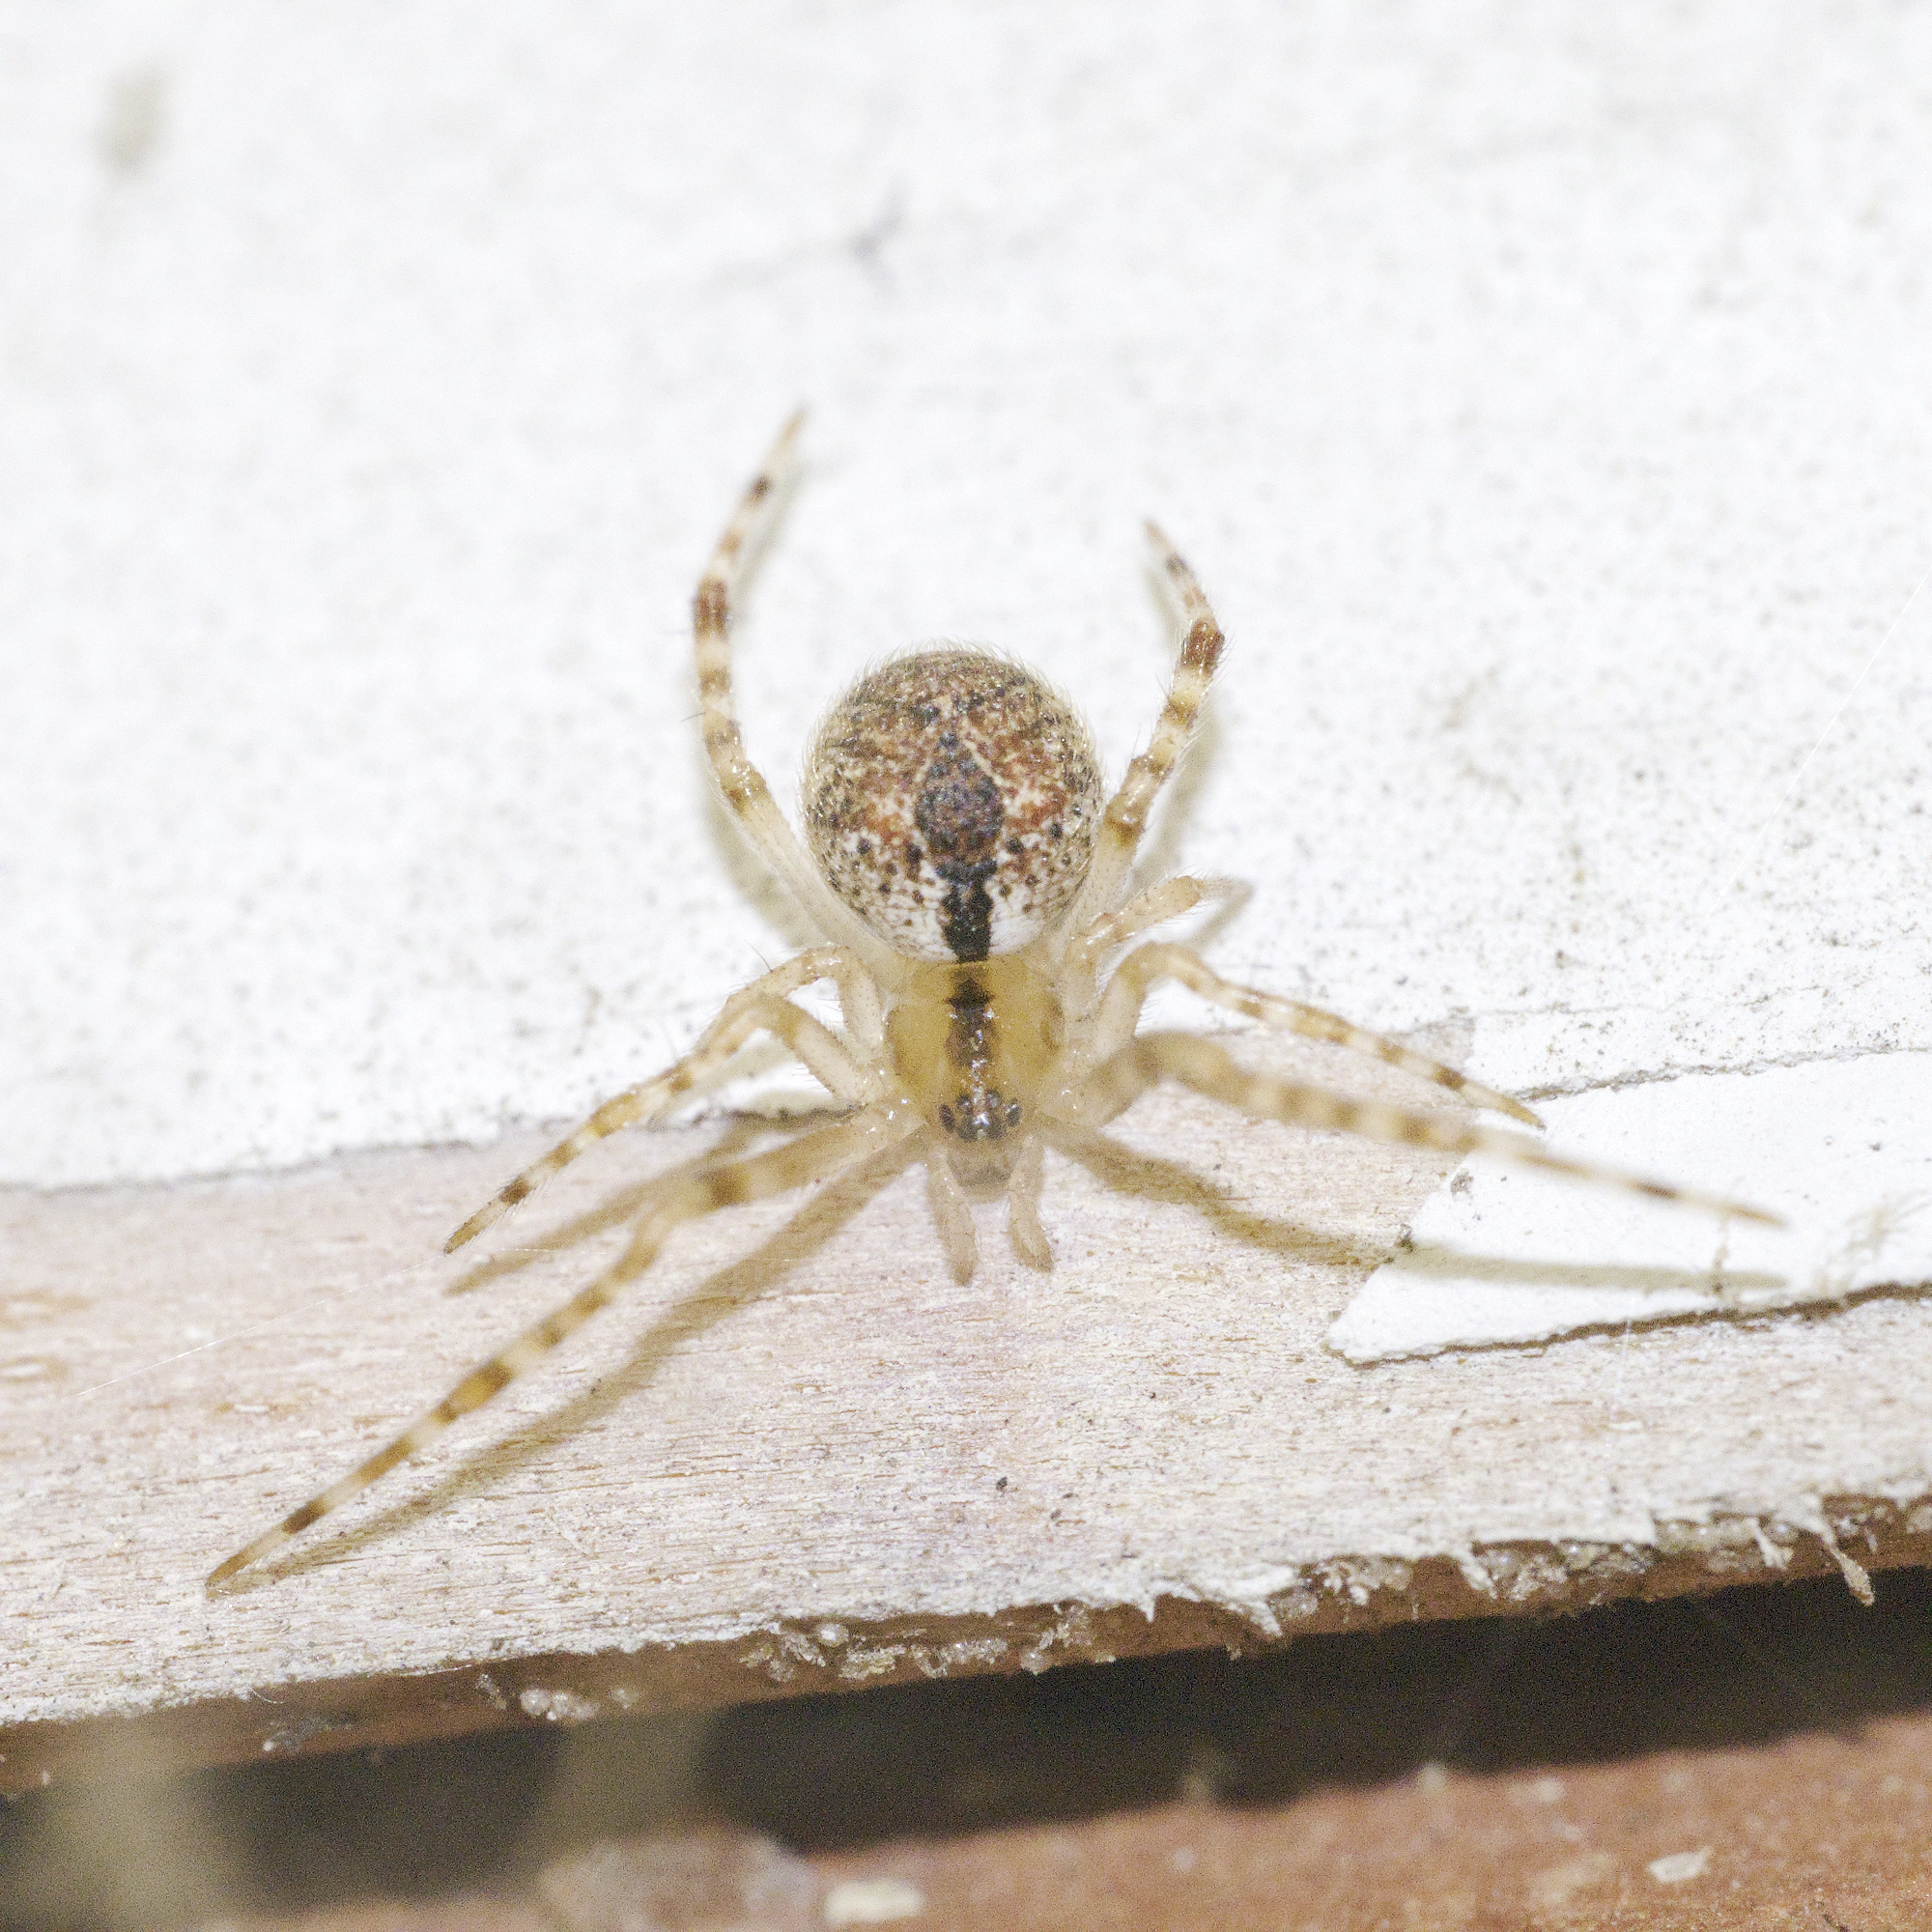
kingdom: Animalia
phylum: Arthropoda
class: Arachnida
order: Araneae
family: Theridiidae
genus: Cryptachaea
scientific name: Cryptachaea veruculata
